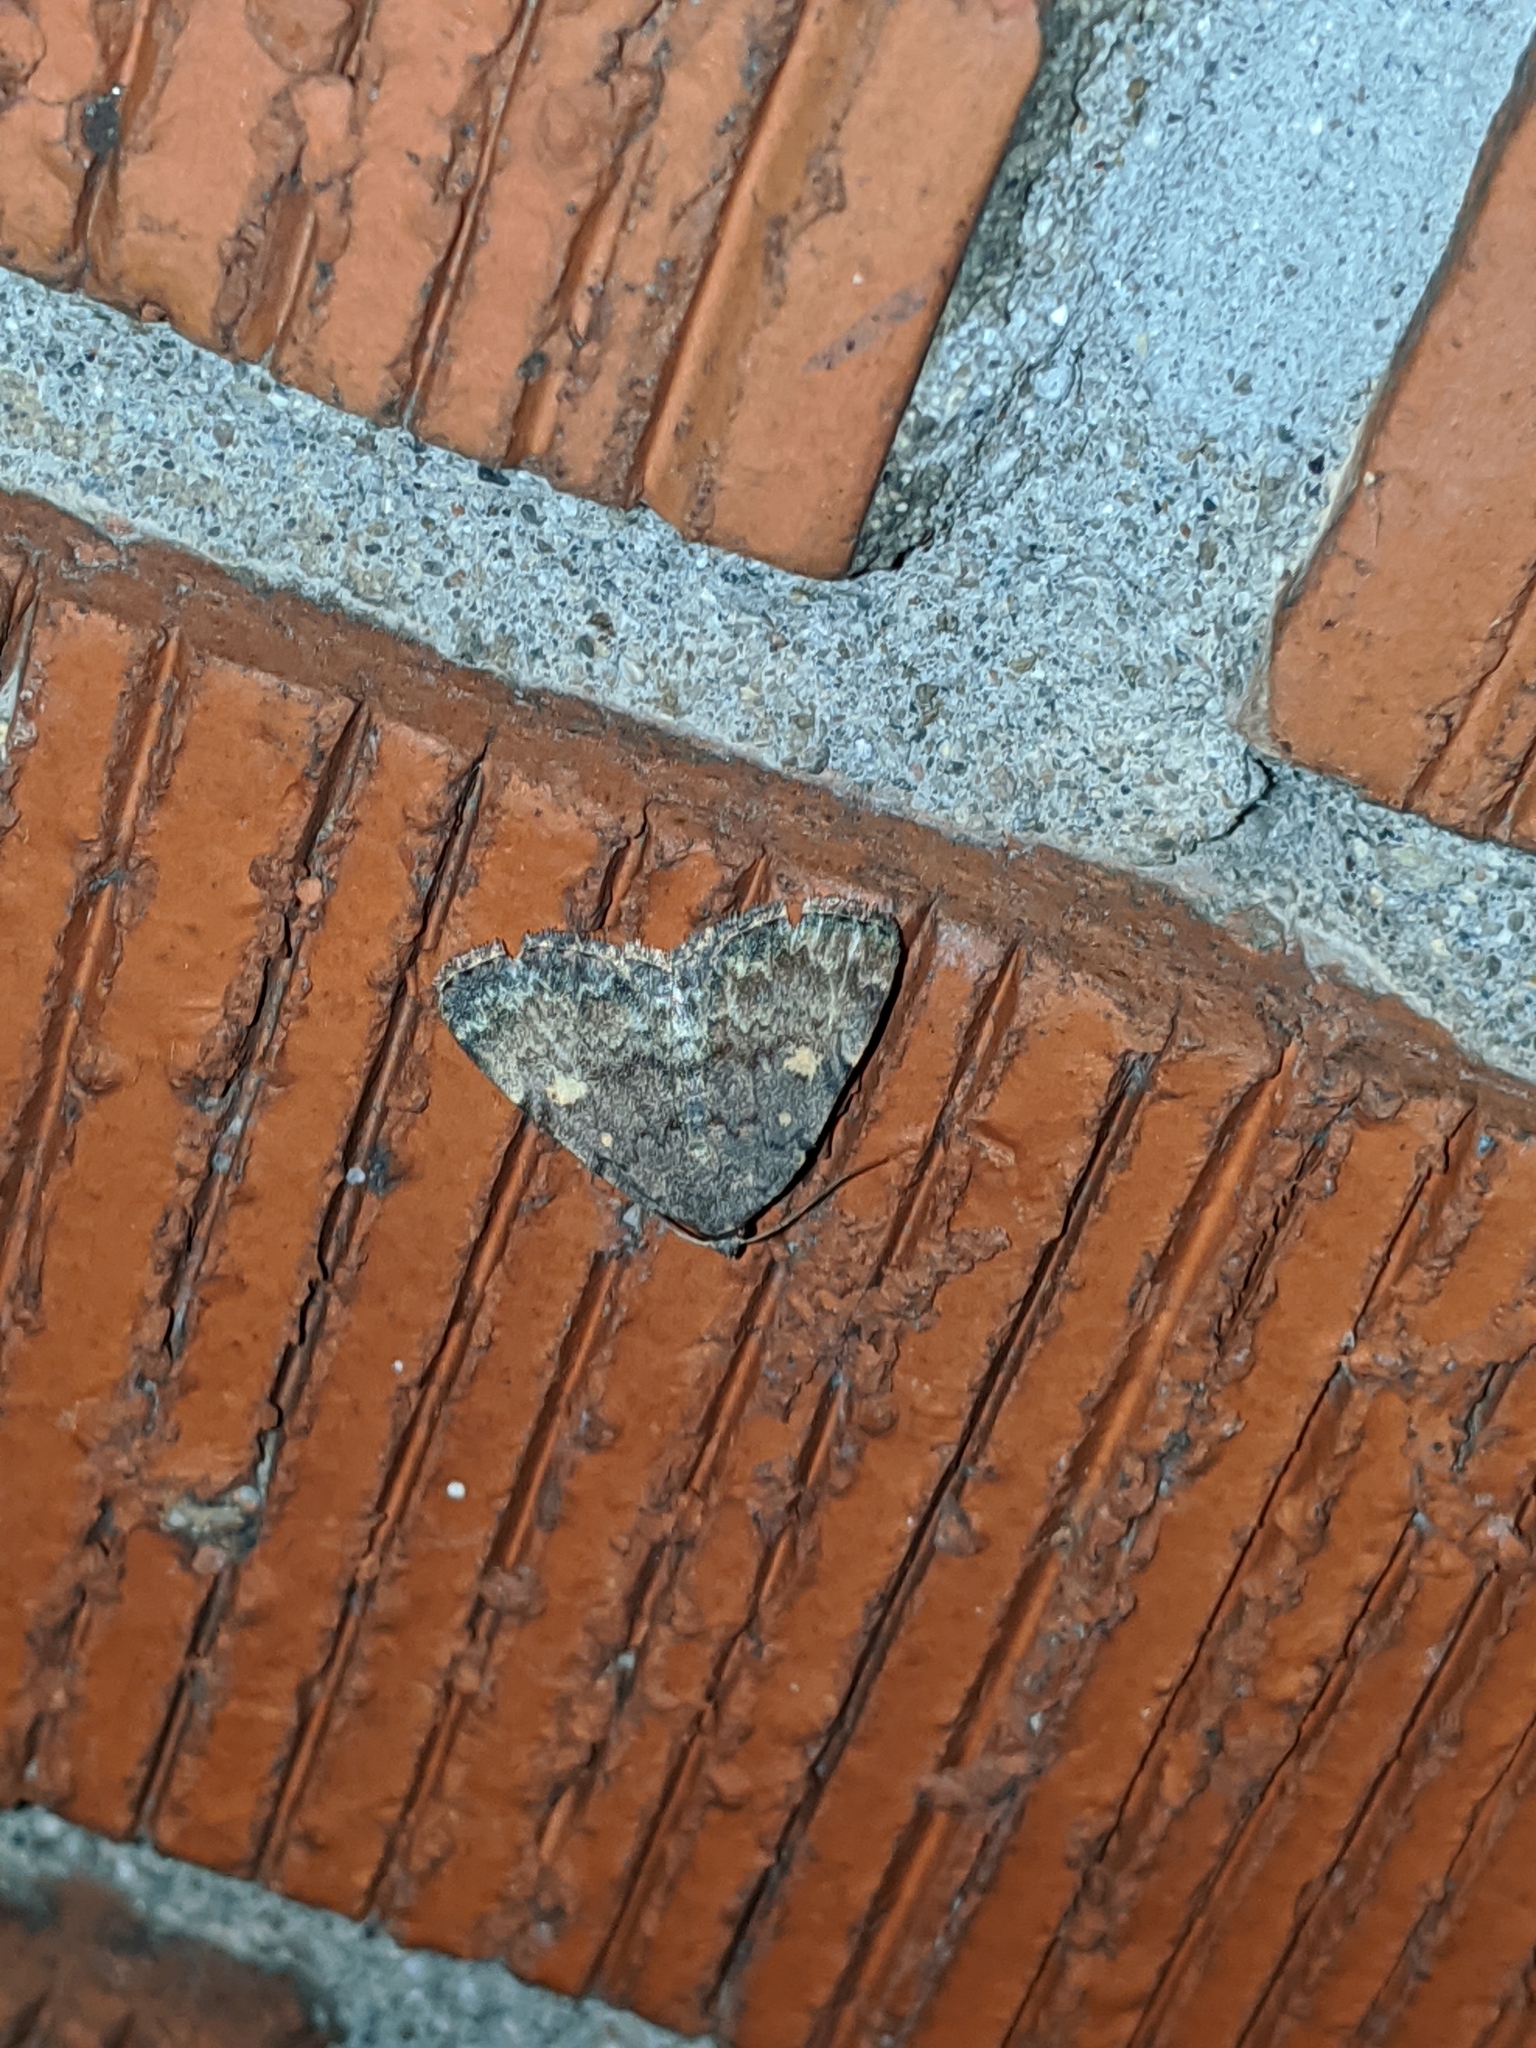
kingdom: Animalia
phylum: Arthropoda
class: Insecta
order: Lepidoptera
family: Erebidae
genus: Idia
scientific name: Idia aemula
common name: Common idia moth
